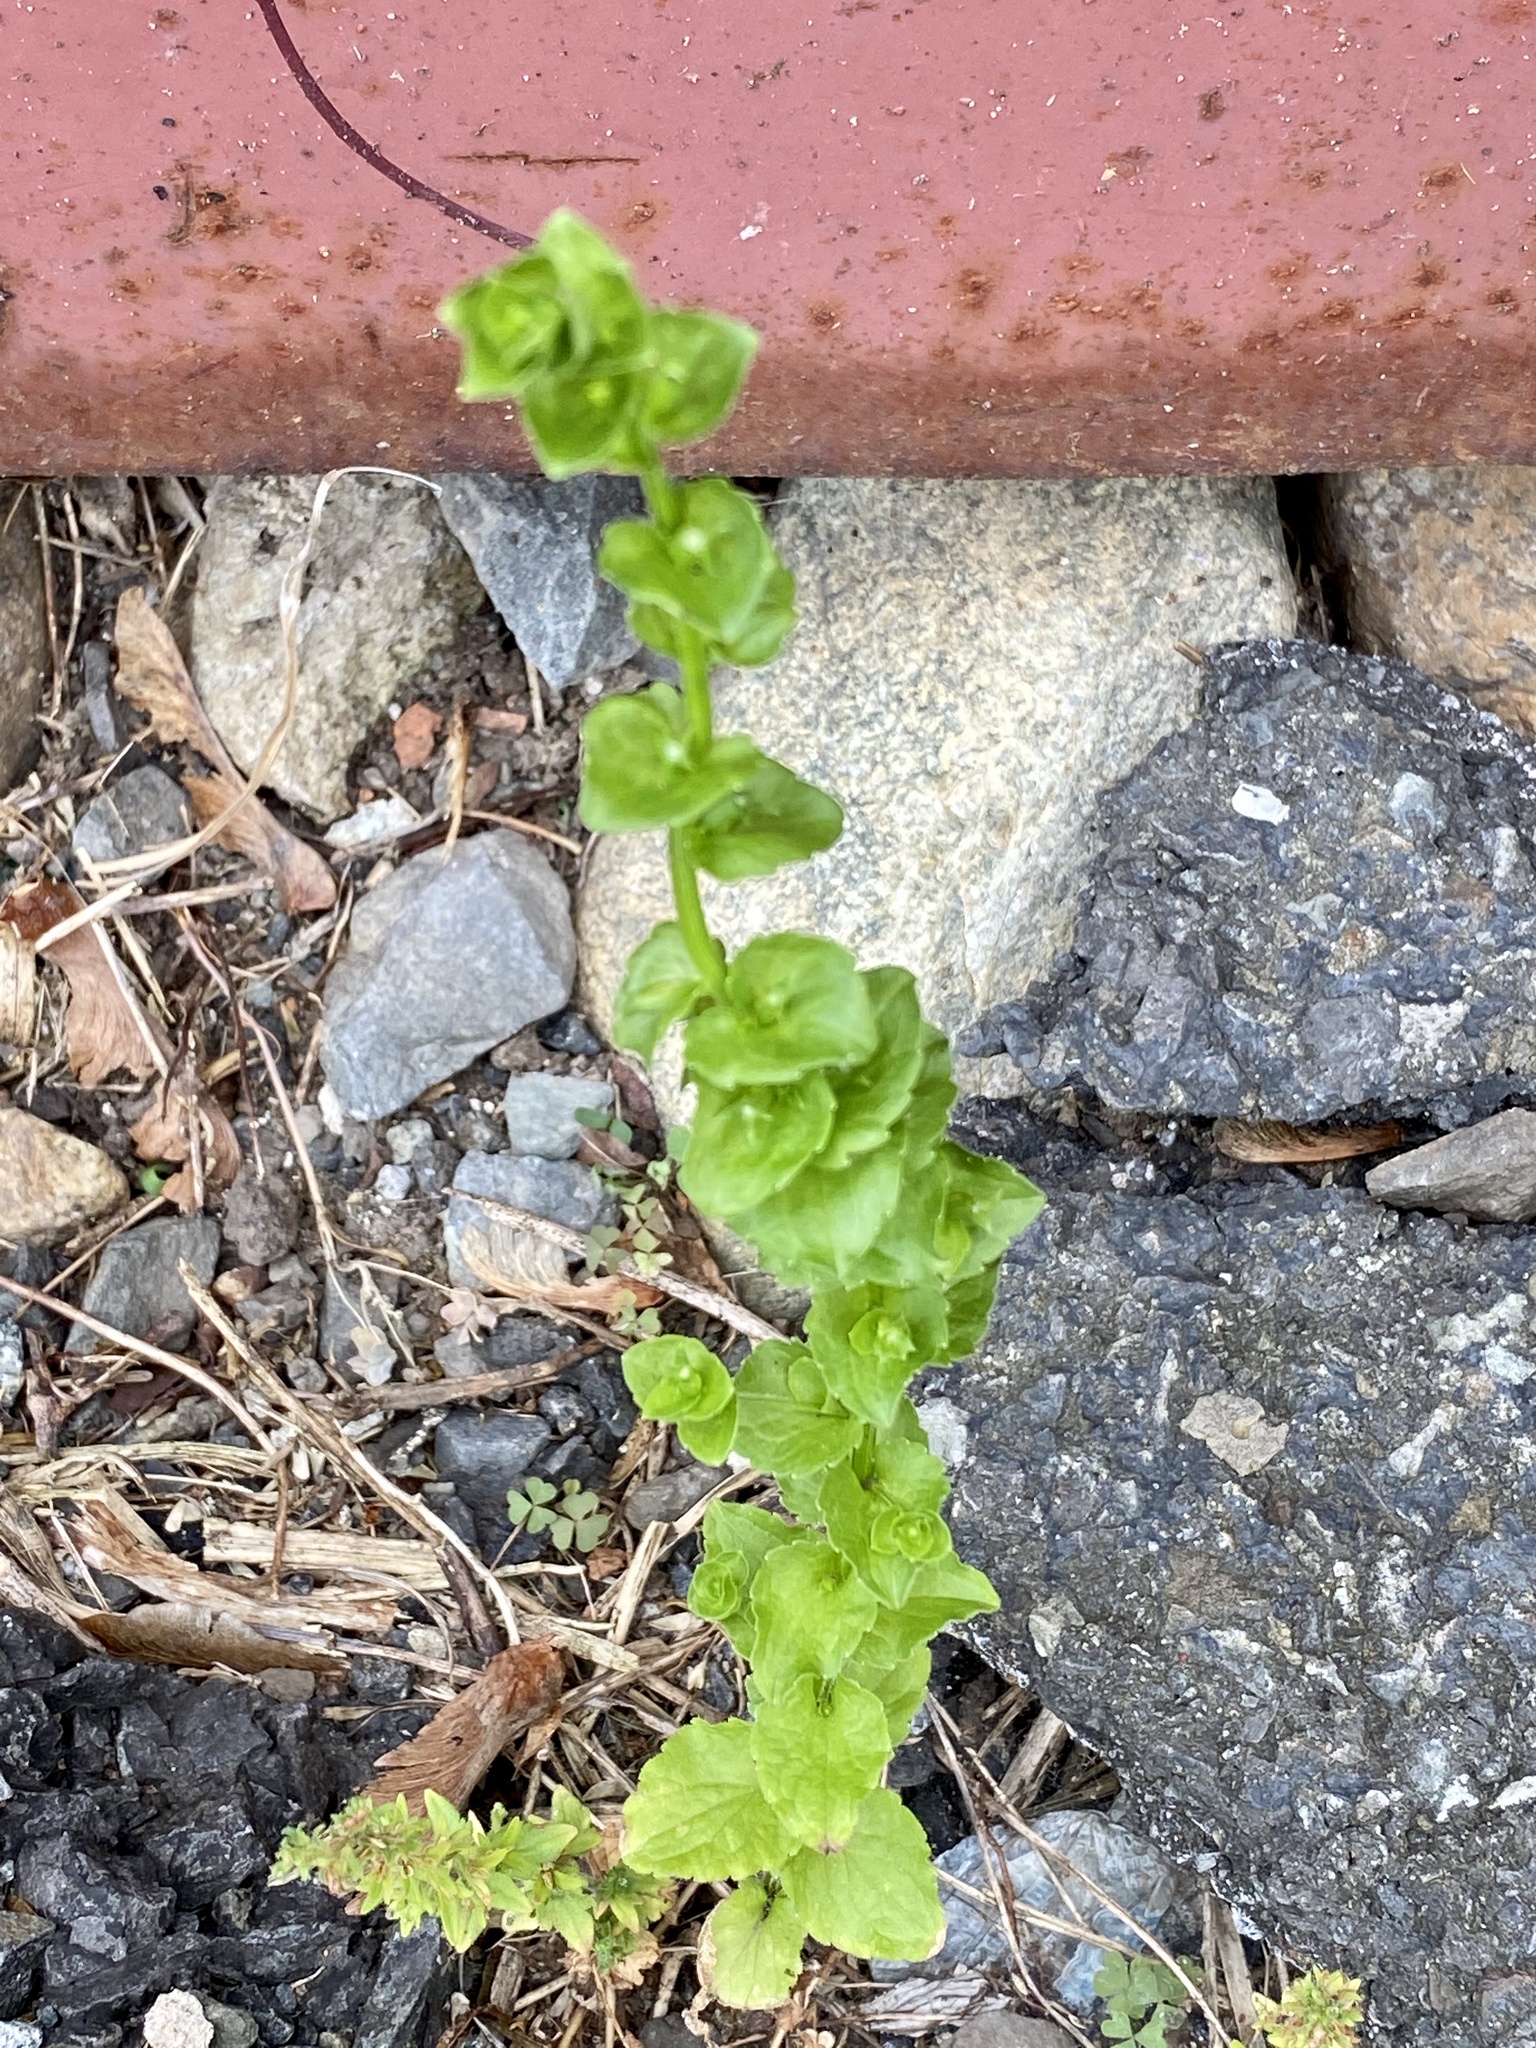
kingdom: Plantae
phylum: Tracheophyta
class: Magnoliopsida
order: Asterales
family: Campanulaceae
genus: Triodanis
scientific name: Triodanis perfoliata
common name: Clasping venus' looking-glass
